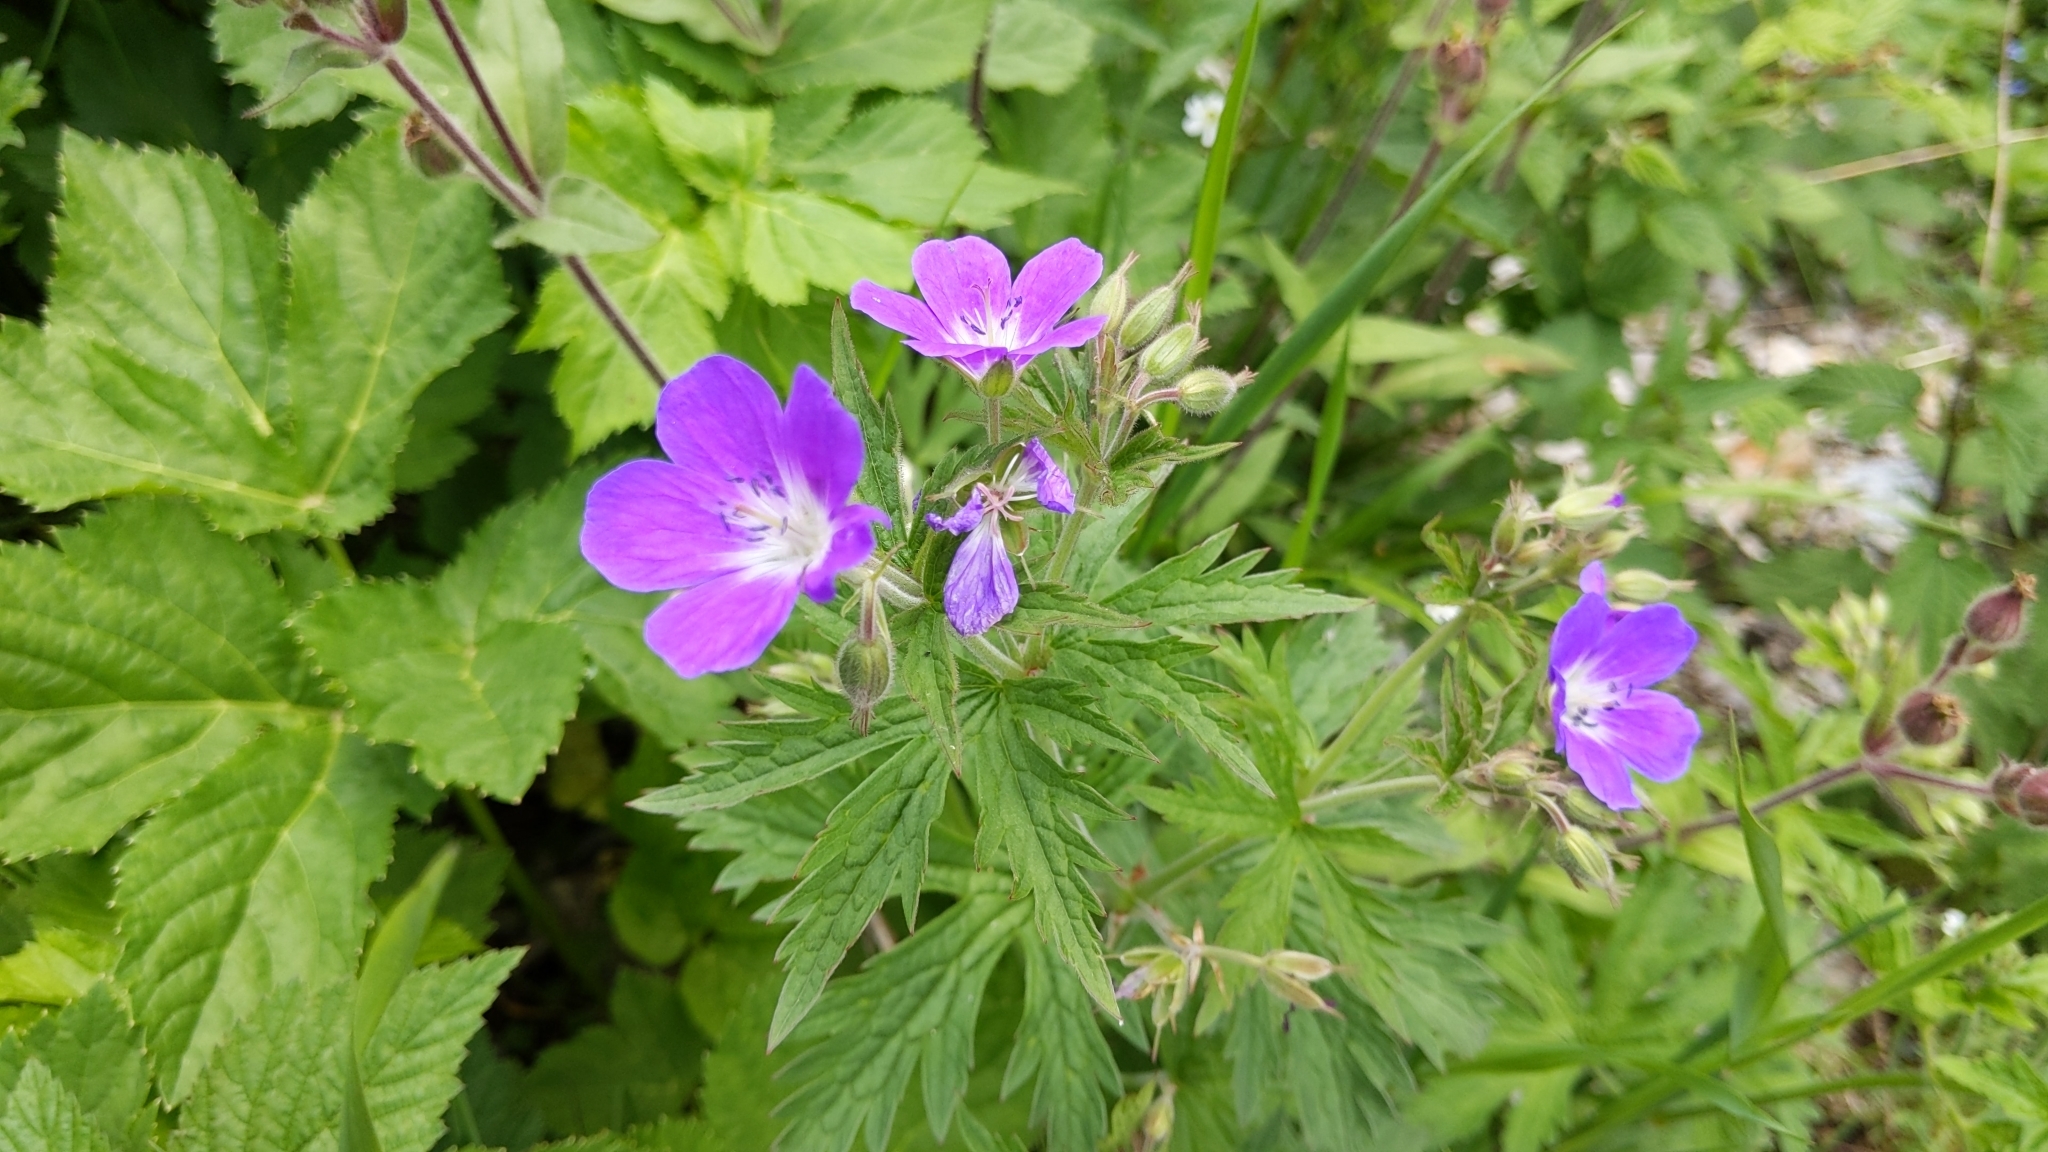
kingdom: Plantae
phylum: Tracheophyta
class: Magnoliopsida
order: Geraniales
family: Geraniaceae
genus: Geranium
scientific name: Geranium sylvaticum
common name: Wood crane's-bill
